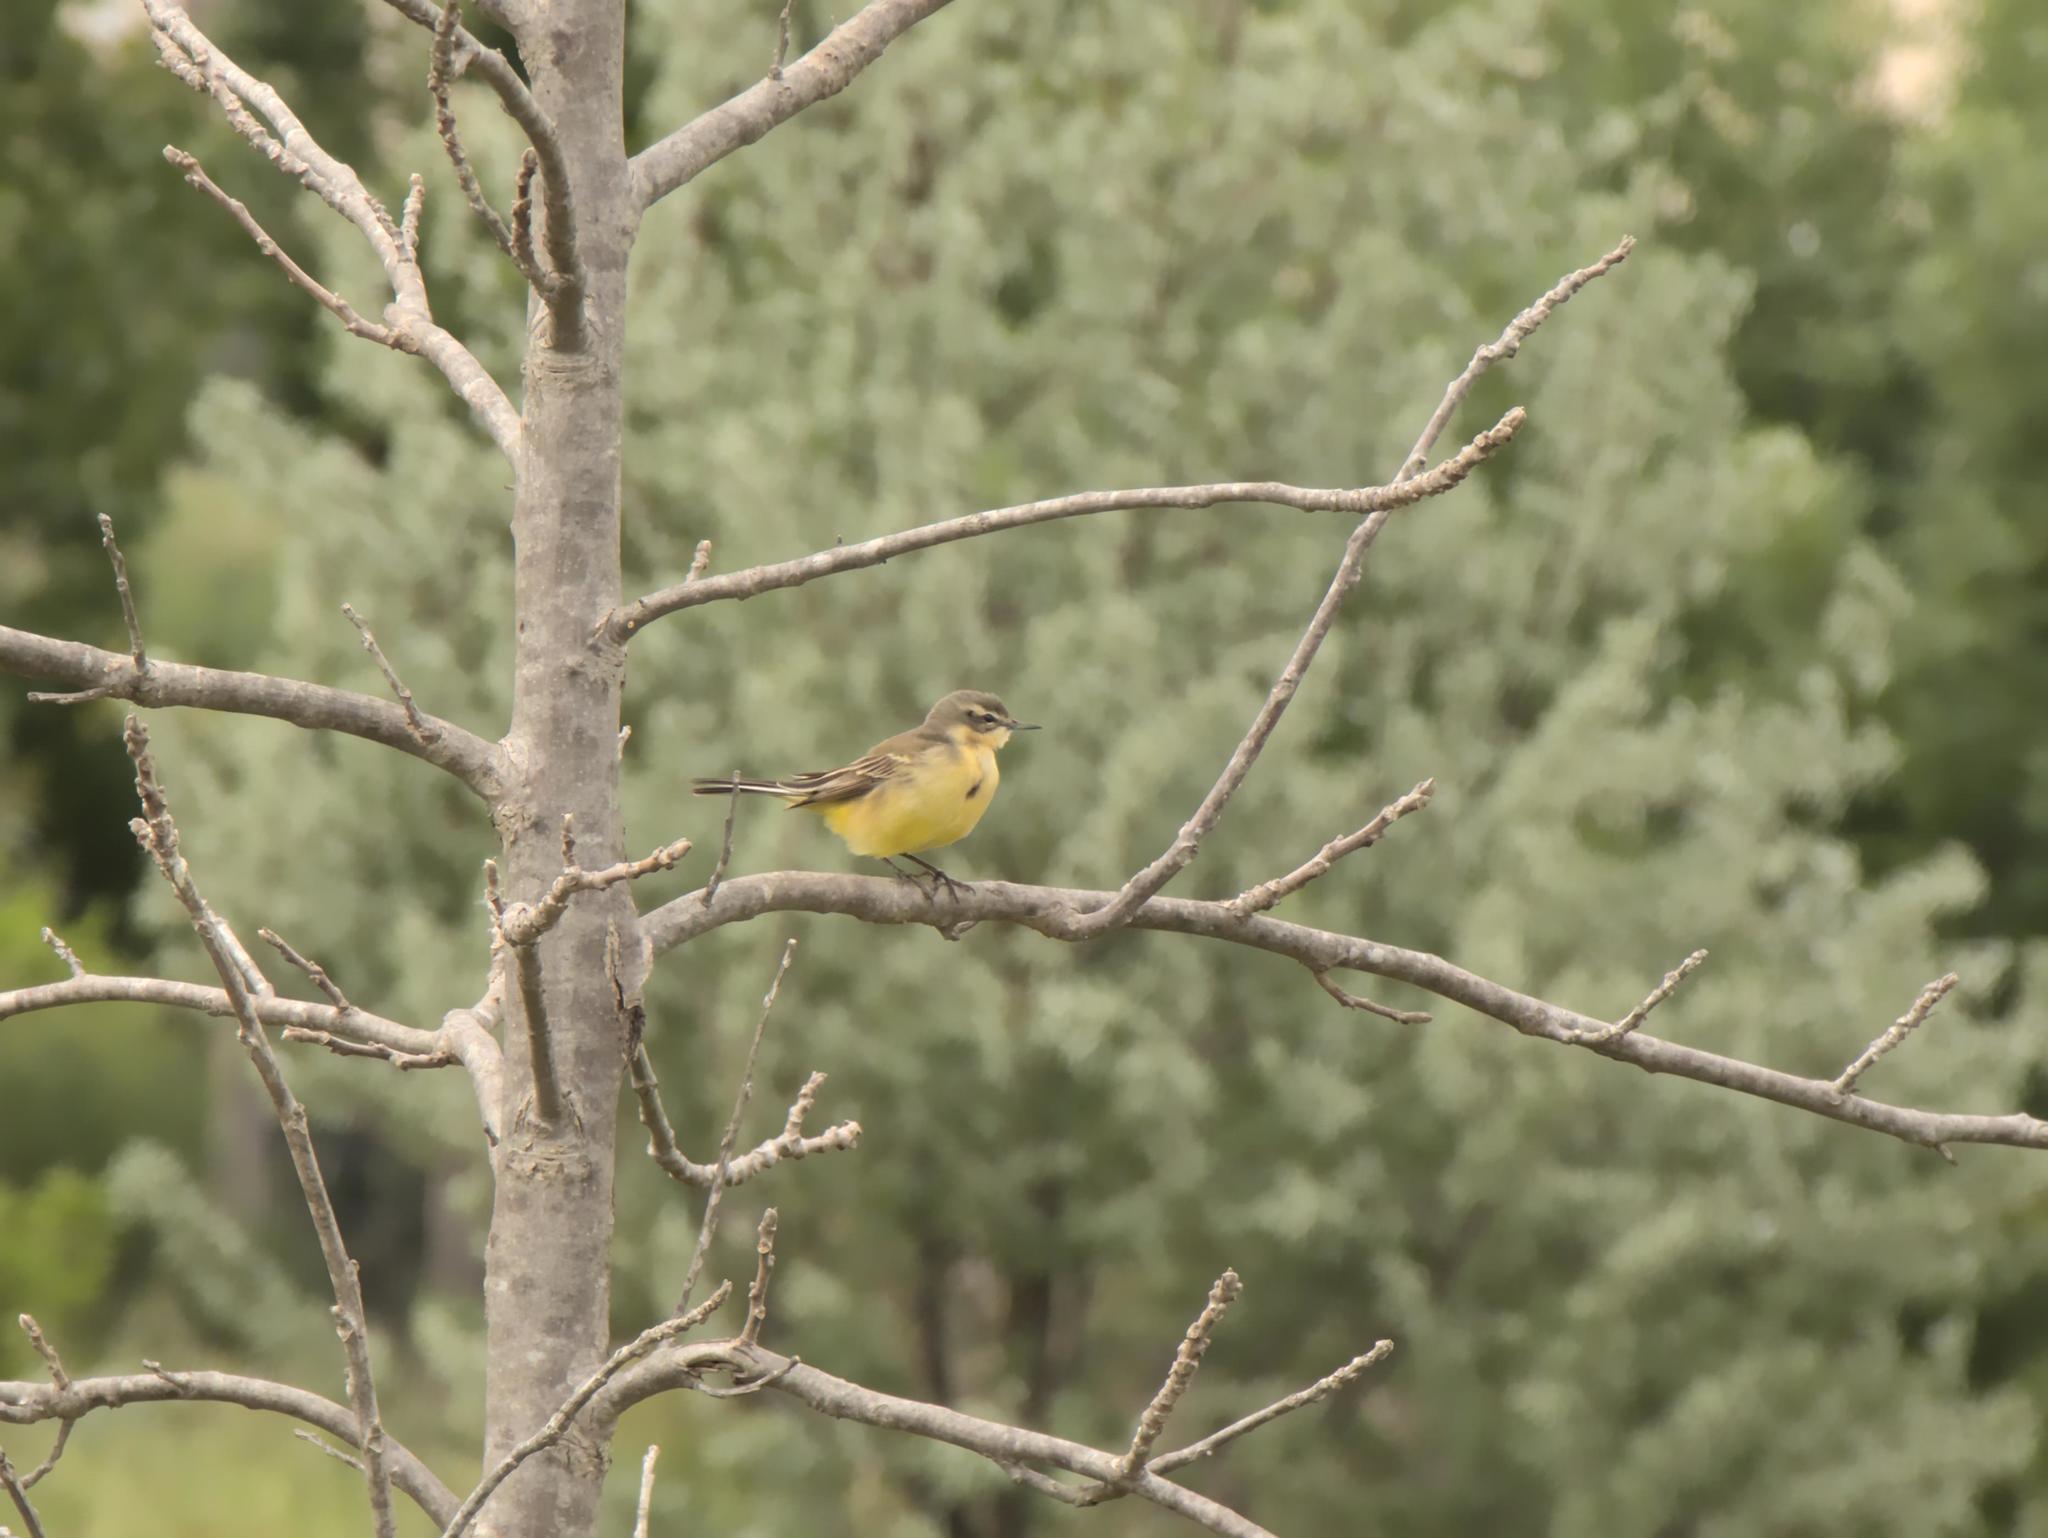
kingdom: Animalia
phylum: Chordata
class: Aves
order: Passeriformes
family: Motacillidae
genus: Motacilla
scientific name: Motacilla flava
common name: Western yellow wagtail
